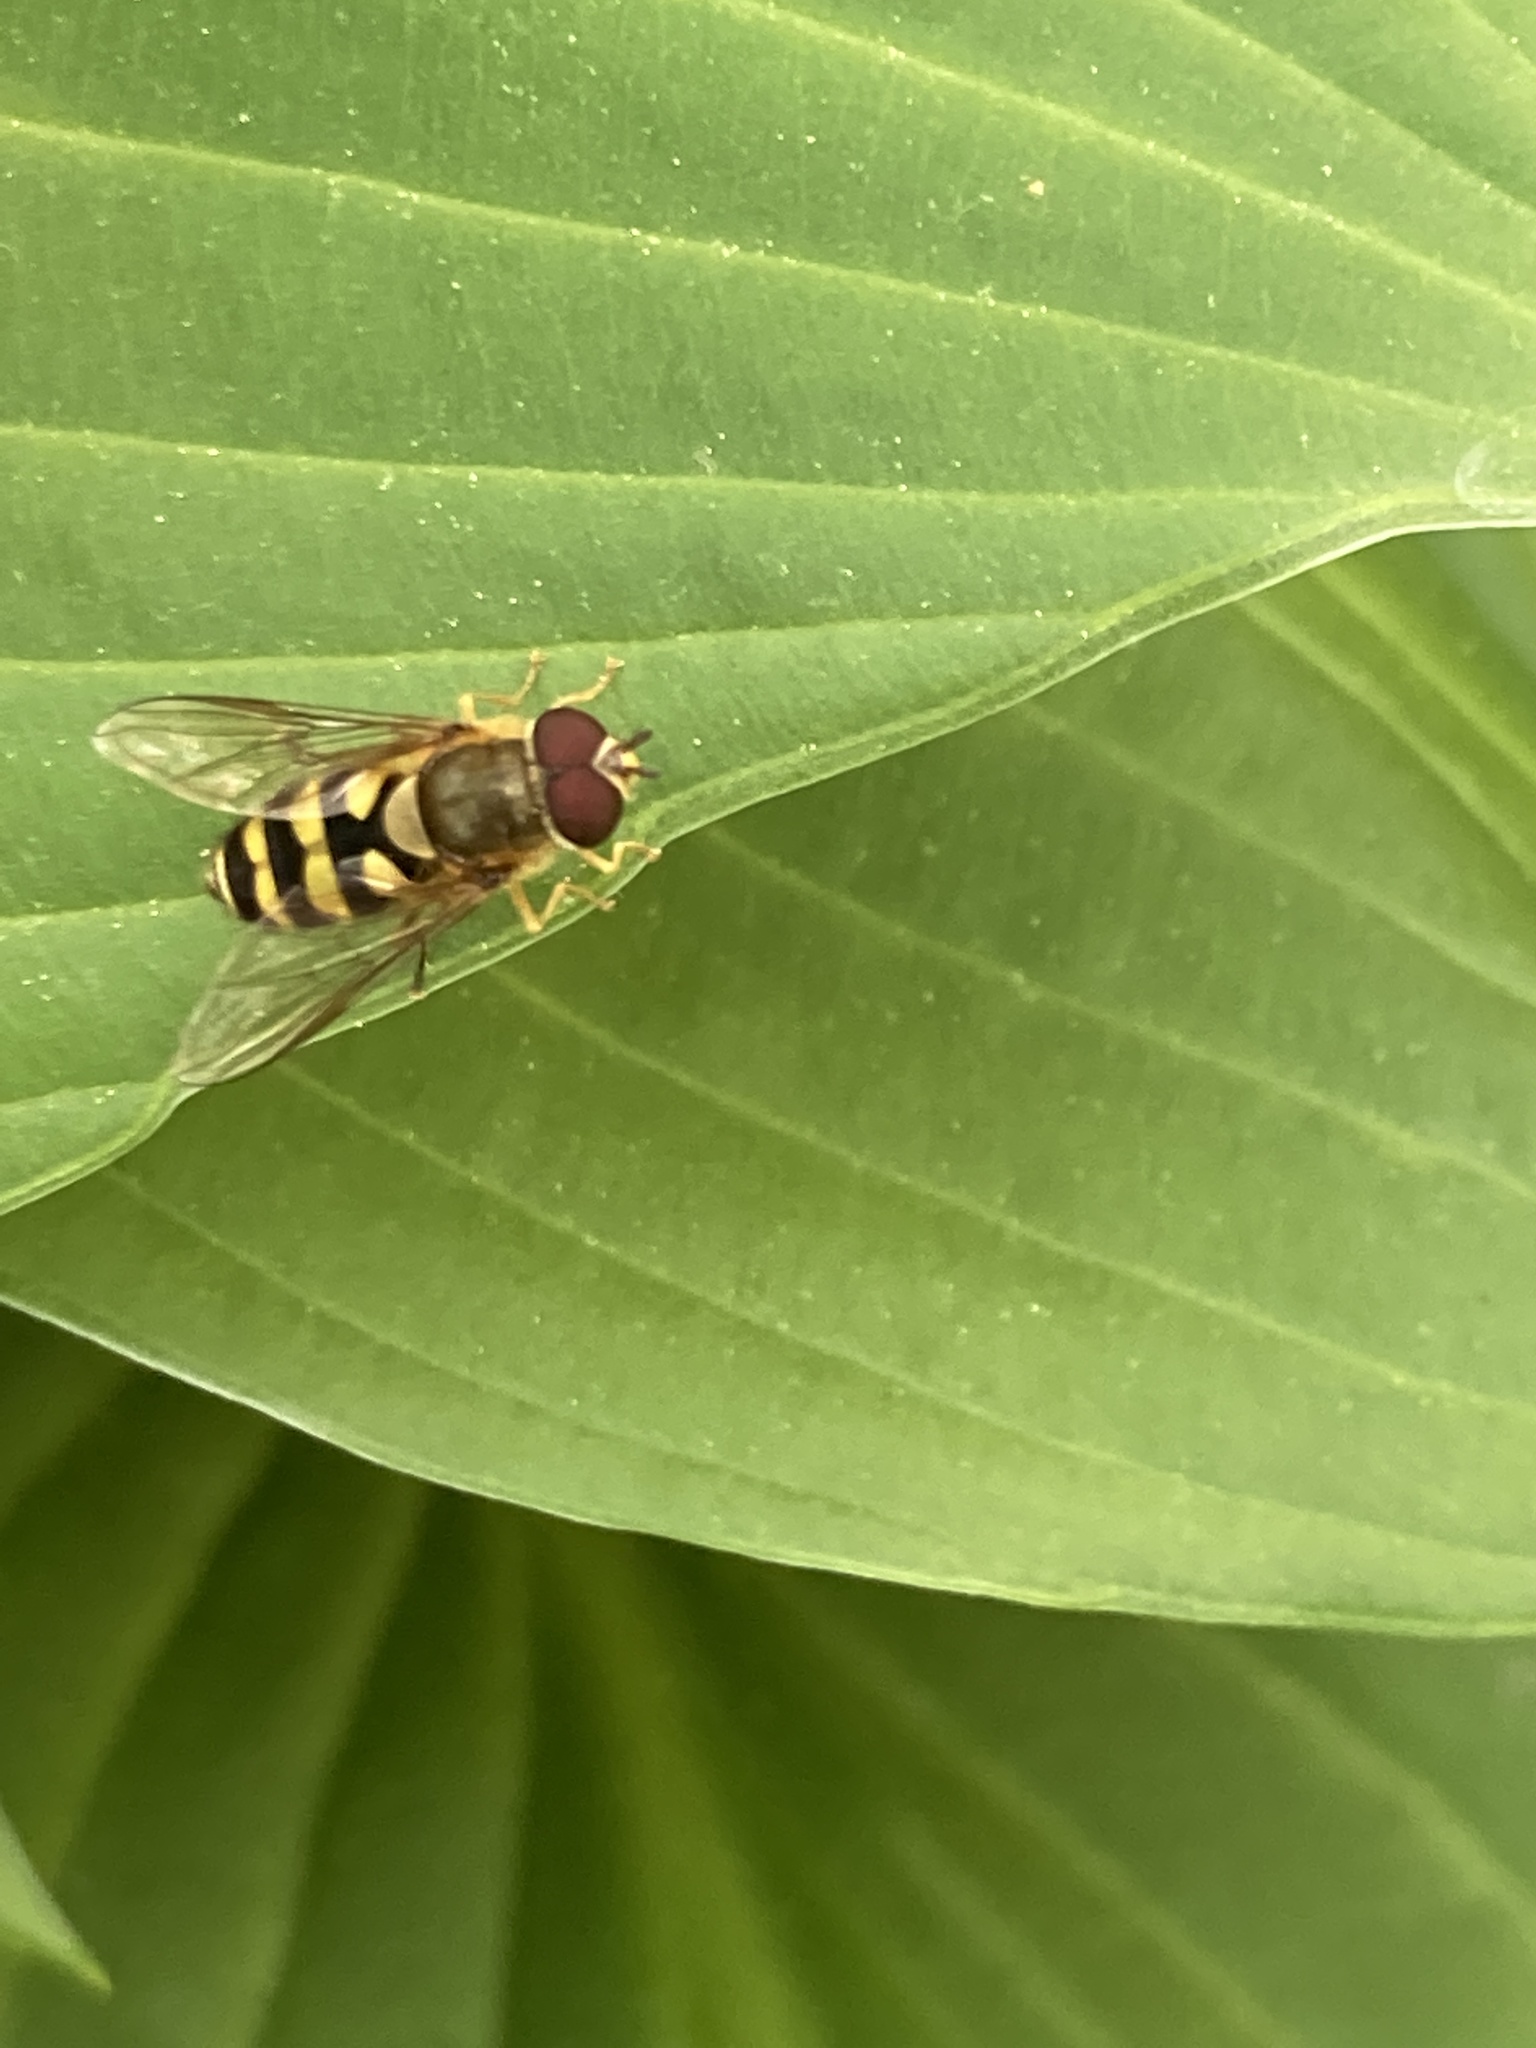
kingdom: Animalia
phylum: Arthropoda
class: Insecta
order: Diptera
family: Syrphidae
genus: Syrphus
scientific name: Syrphus
